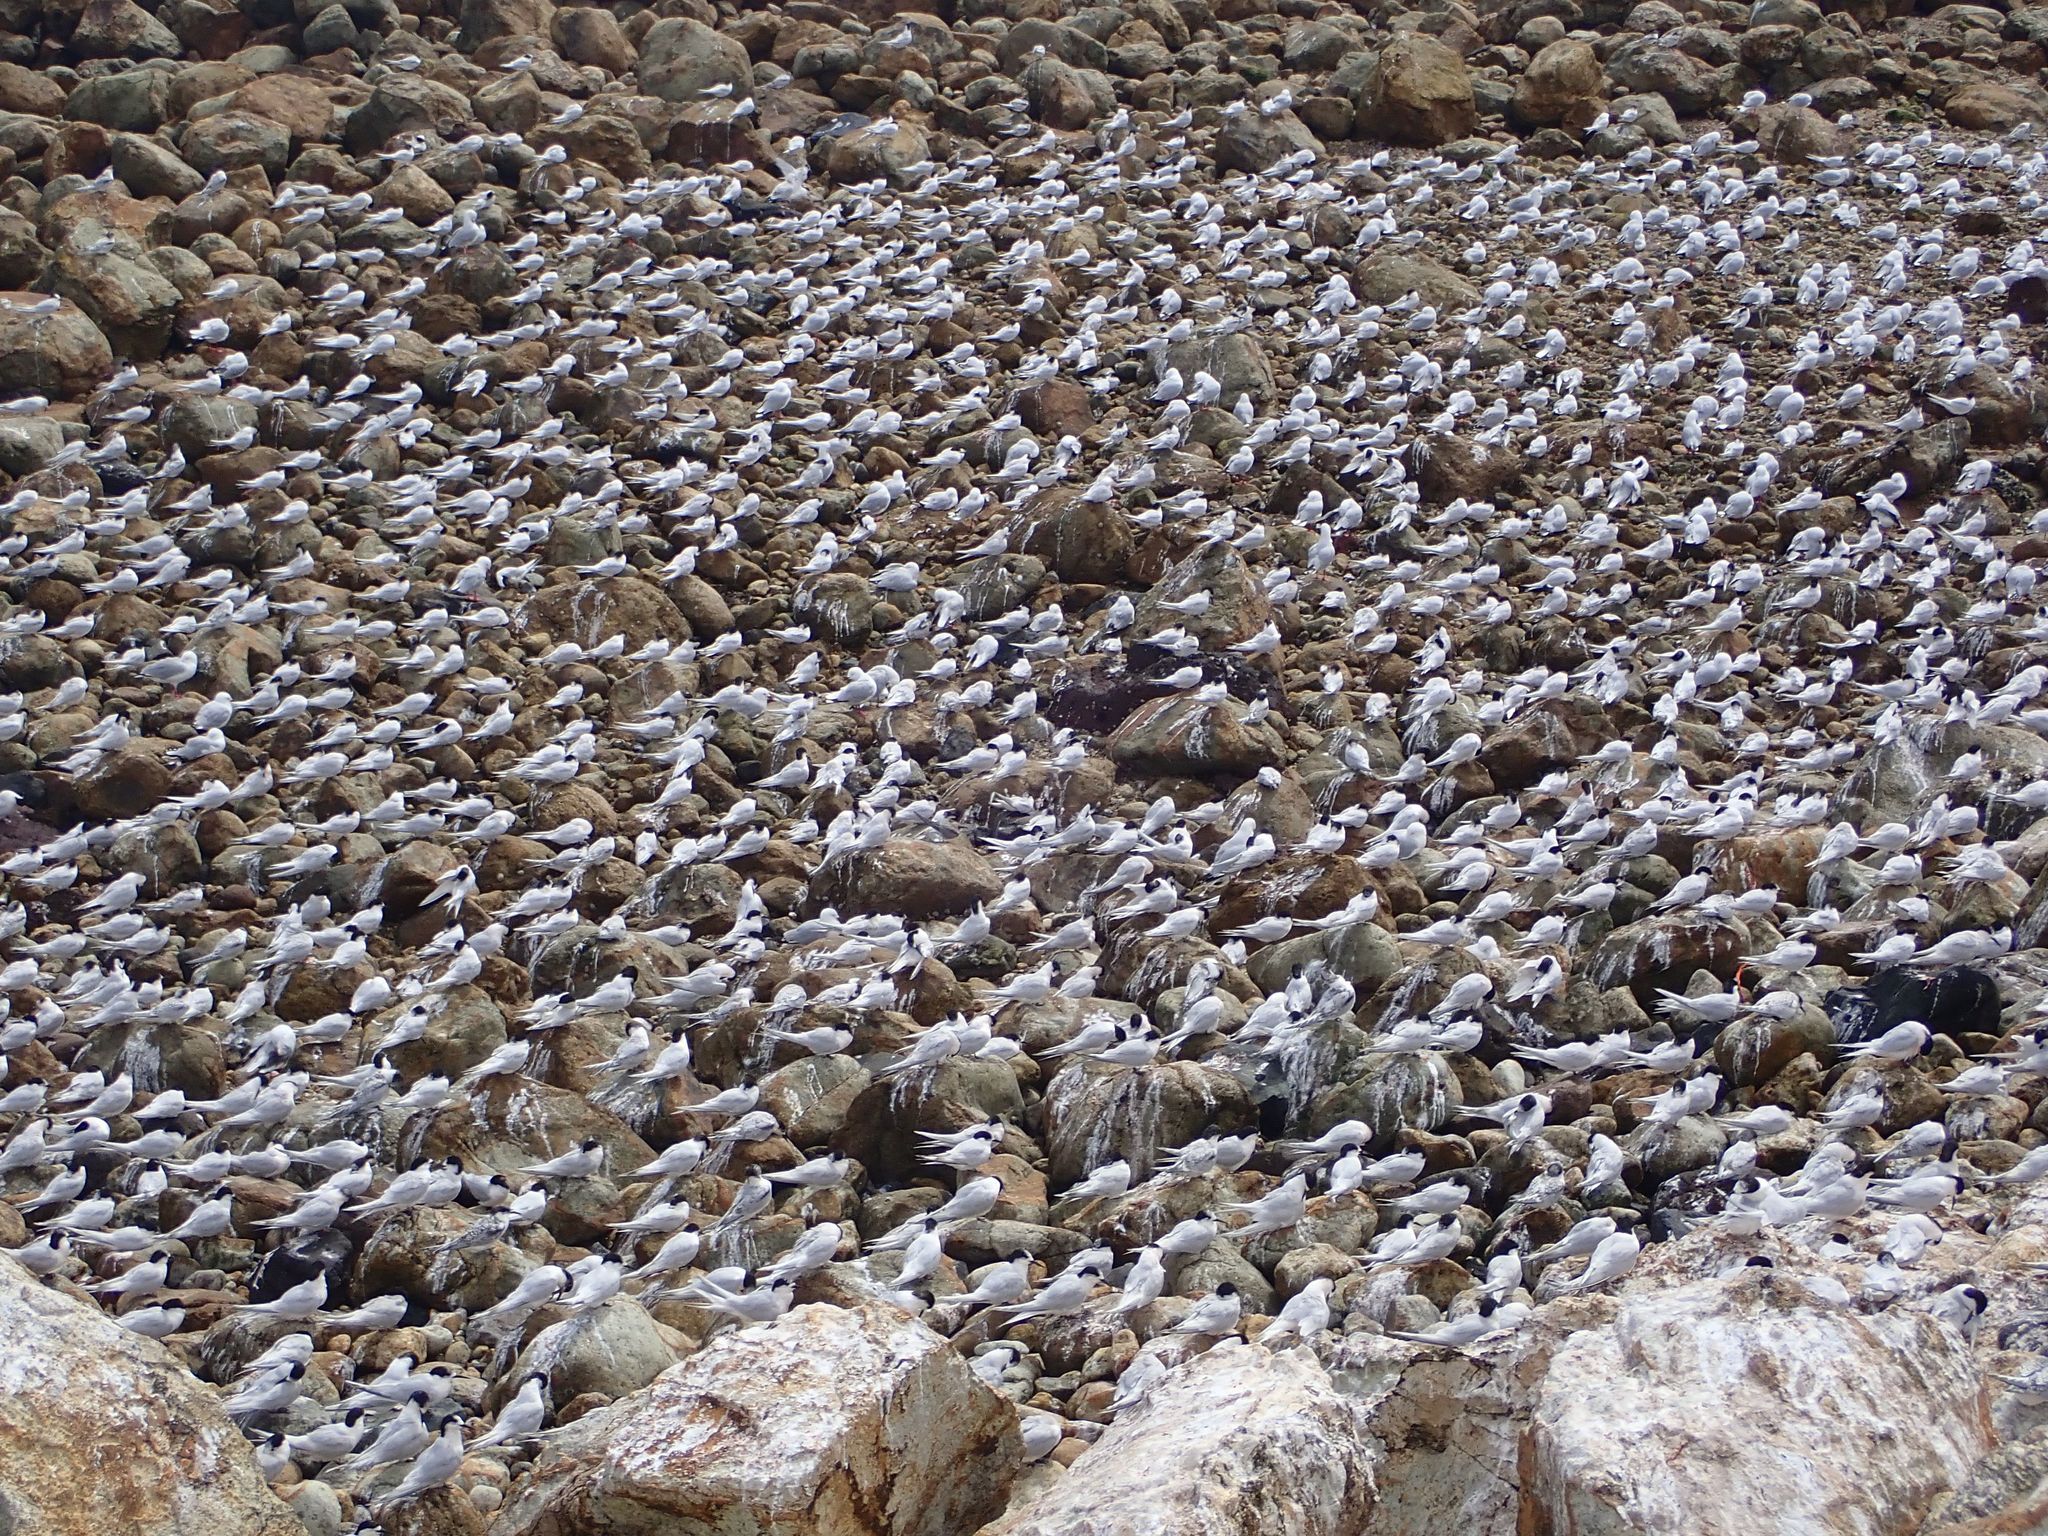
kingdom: Animalia
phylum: Chordata
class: Aves
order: Charadriiformes
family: Laridae
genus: Sterna
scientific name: Sterna striata
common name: White-fronted tern
